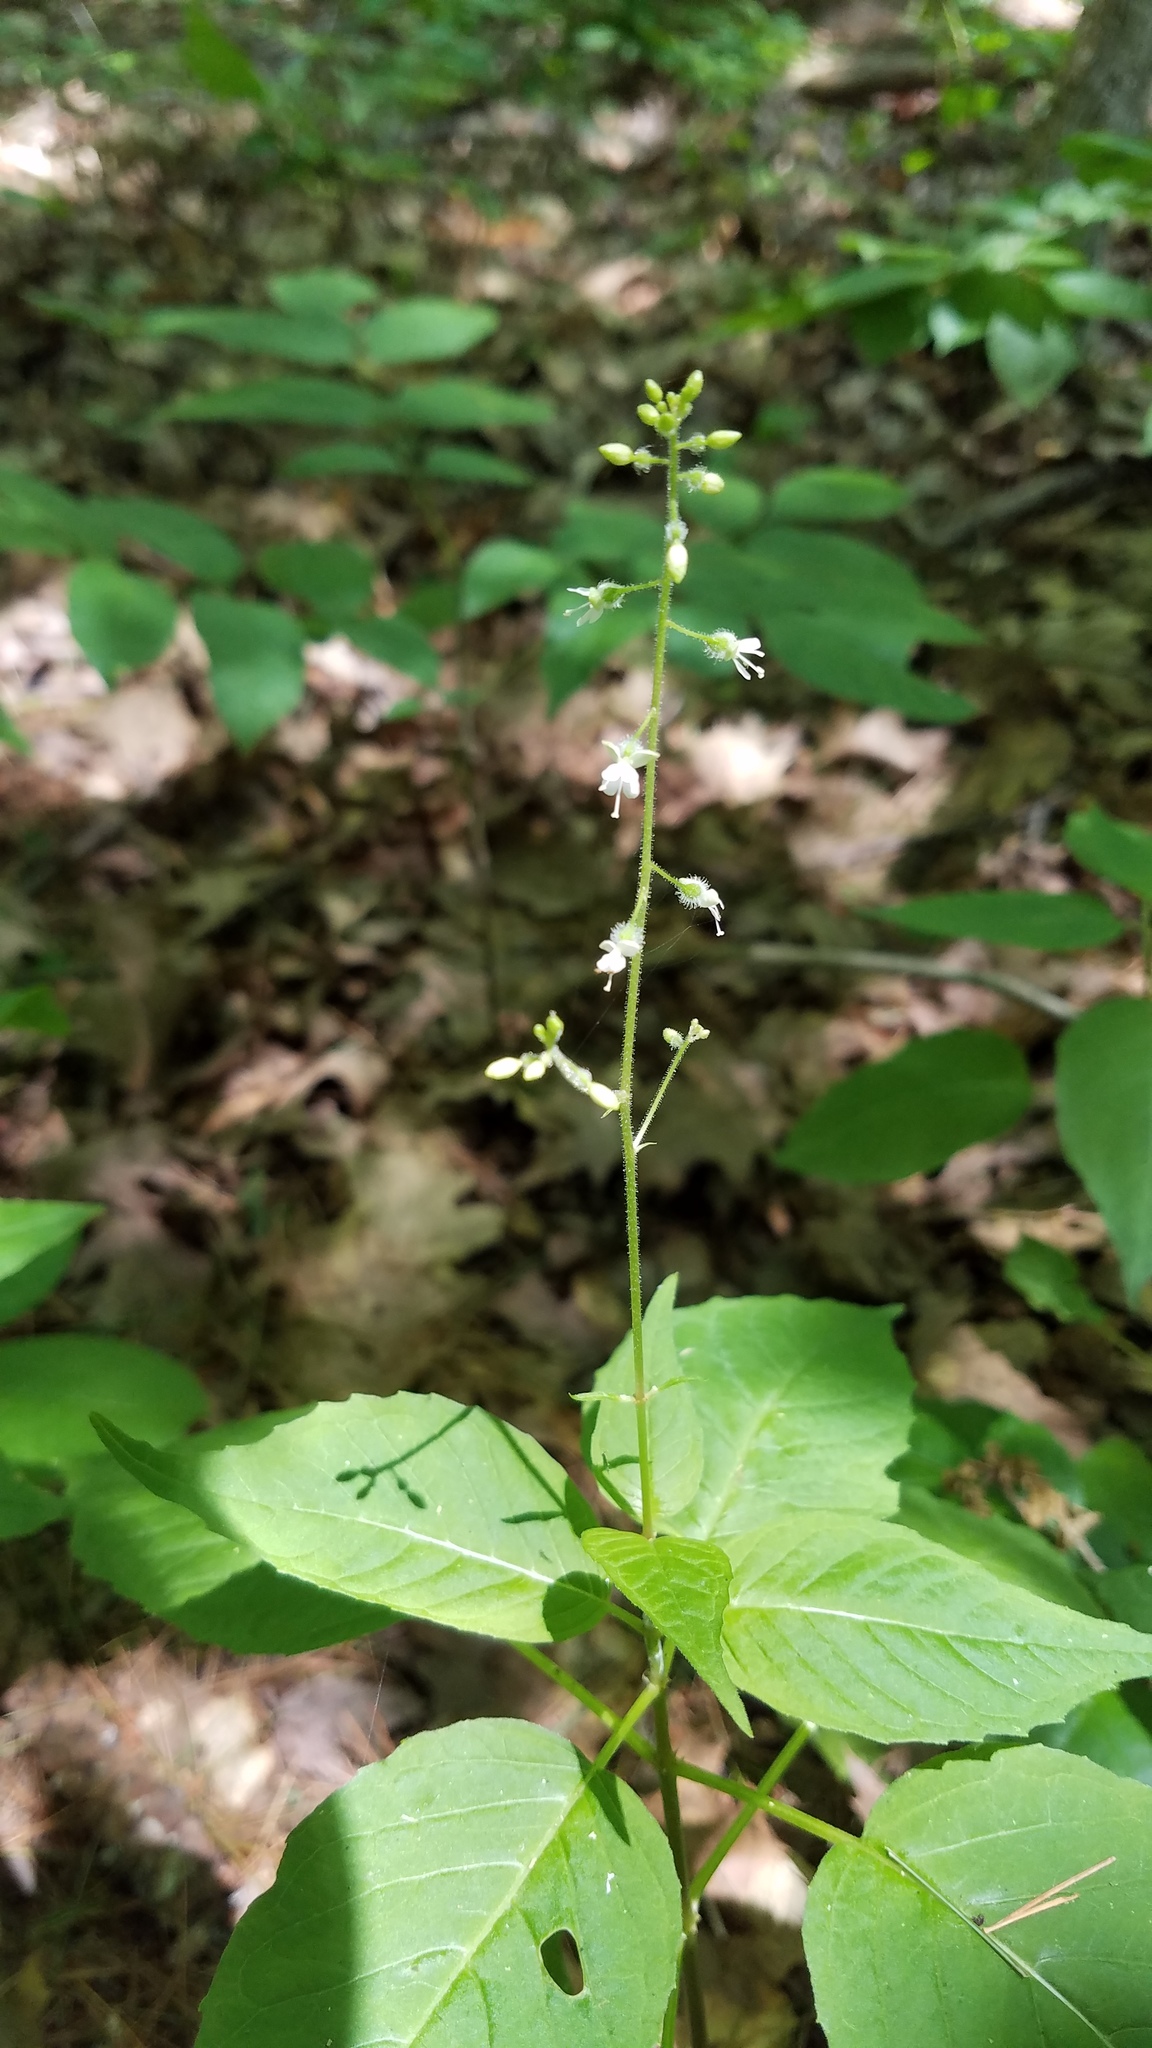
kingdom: Plantae
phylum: Tracheophyta
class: Magnoliopsida
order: Myrtales
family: Onagraceae
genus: Circaea
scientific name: Circaea canadensis
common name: Broad-leaved enchanter's nightshade
